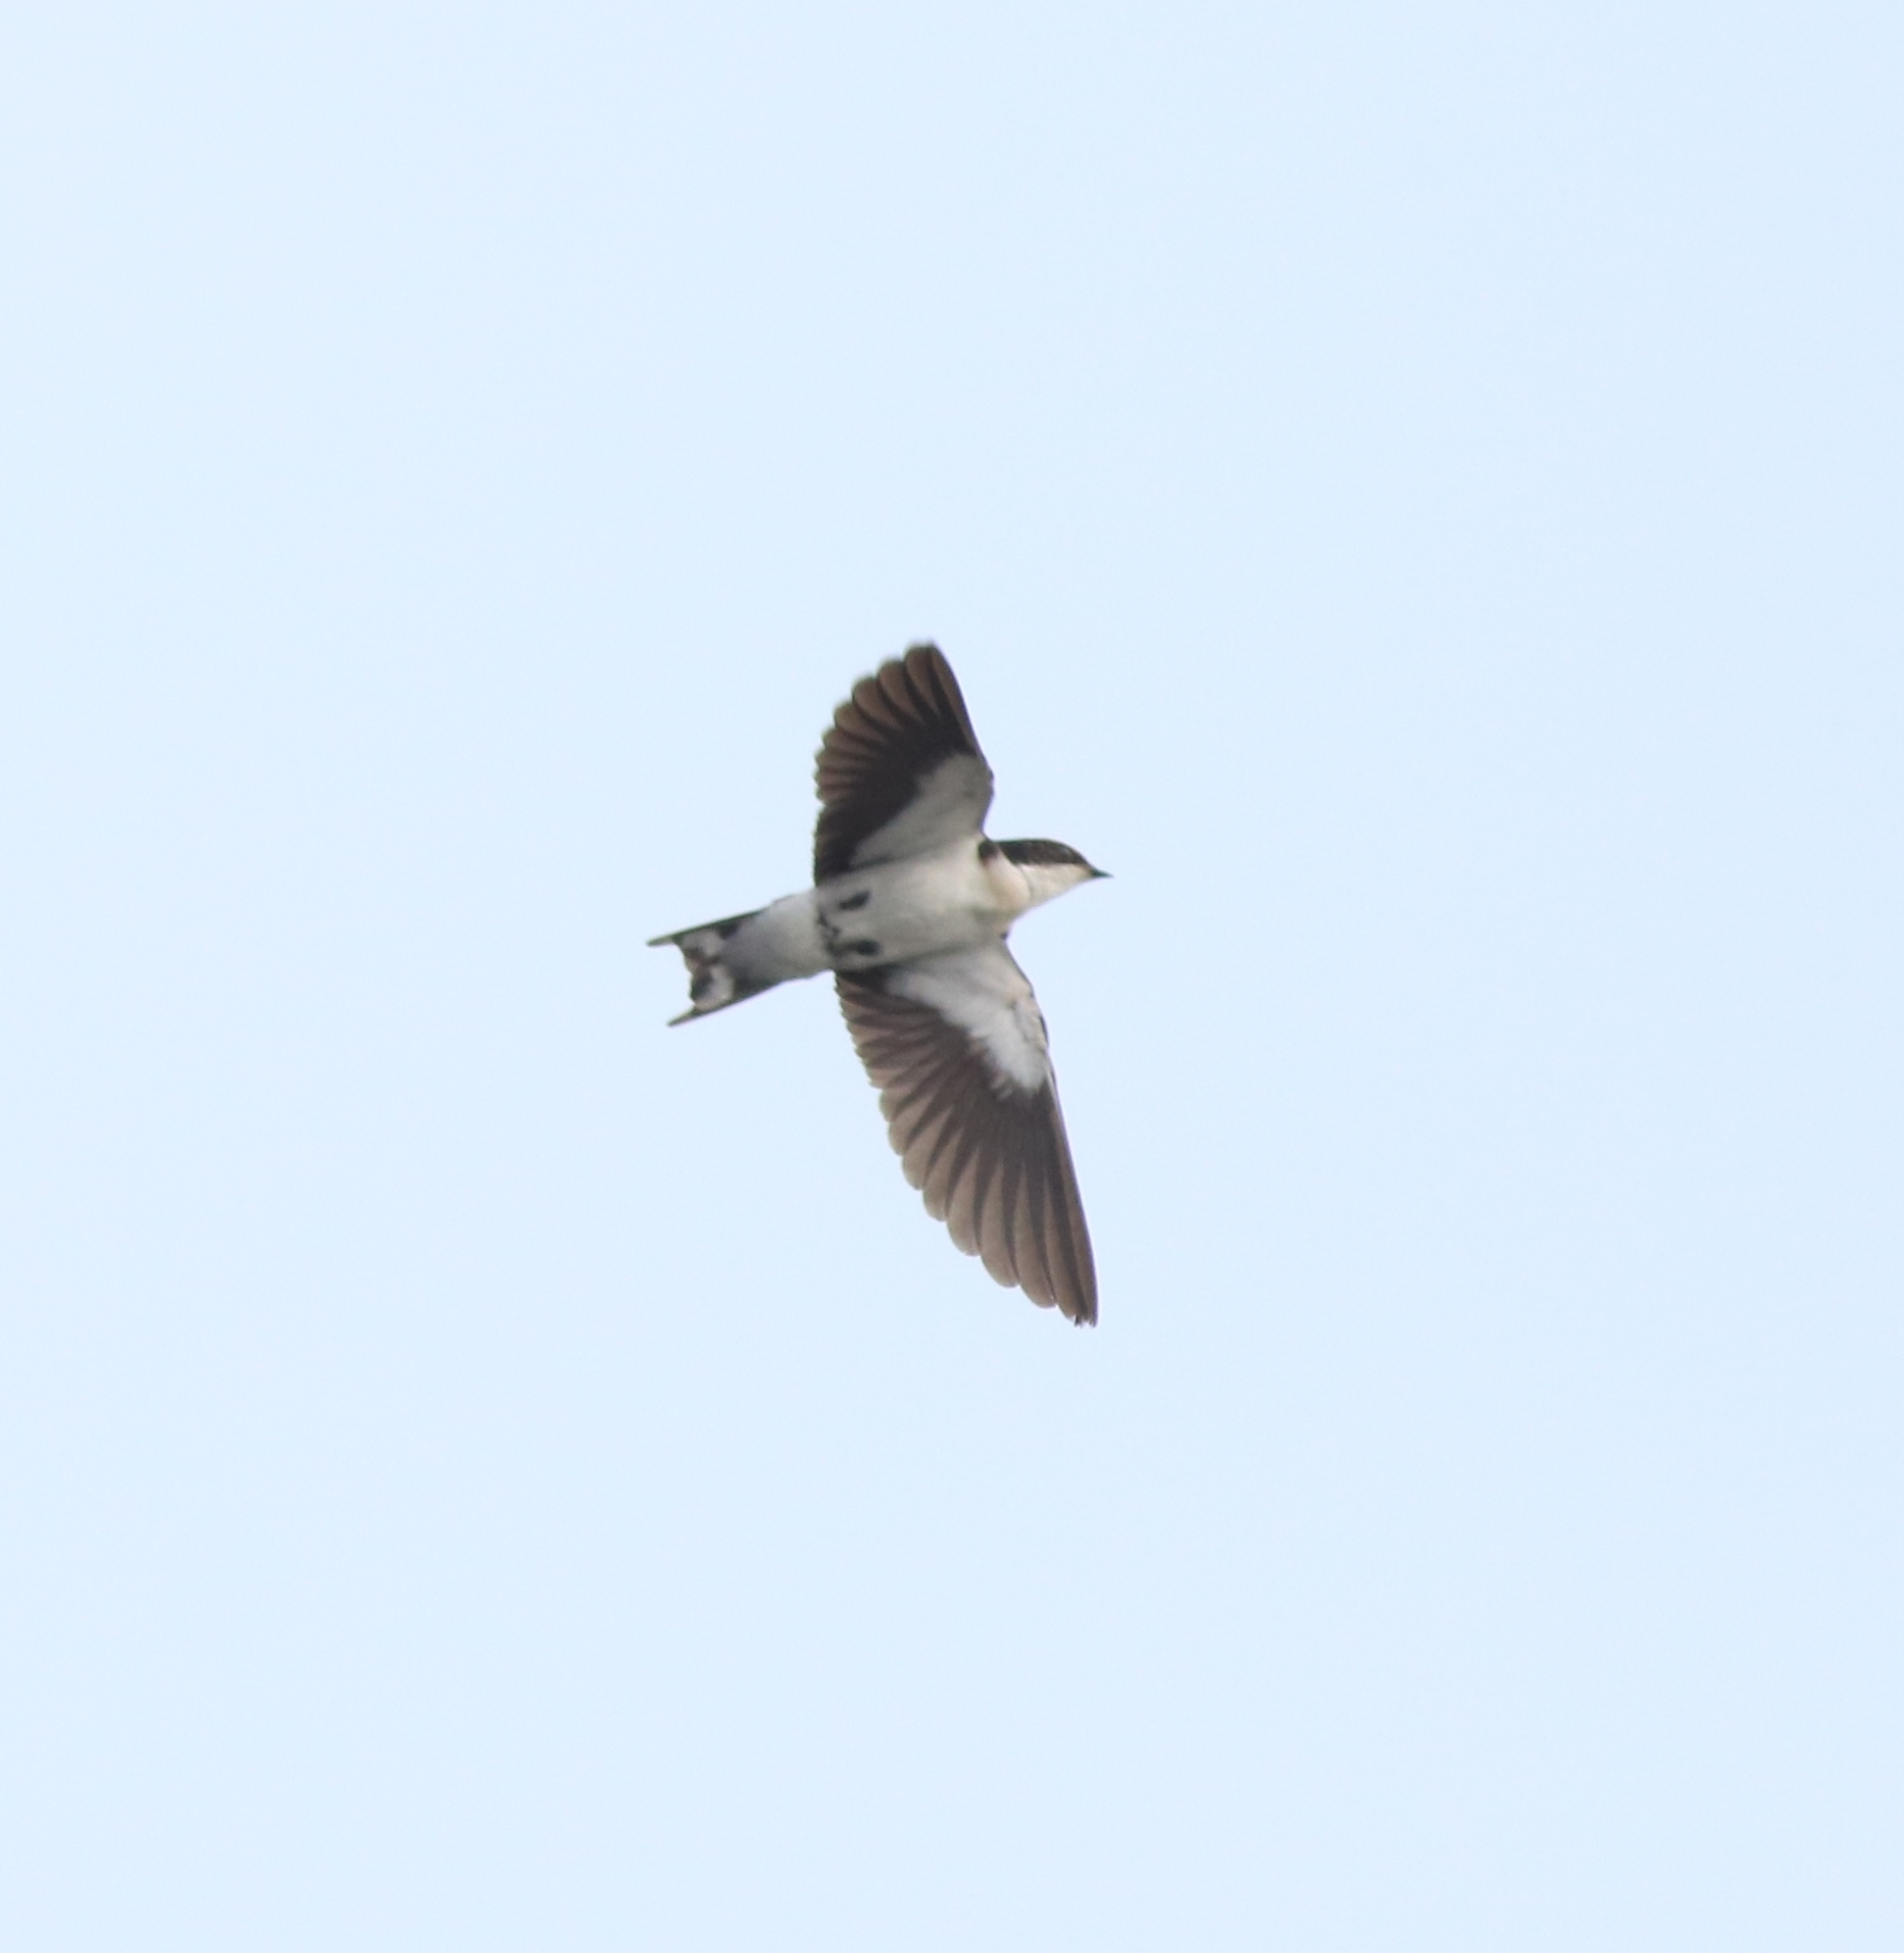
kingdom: Animalia
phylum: Chordata
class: Aves
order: Passeriformes
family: Hirundinidae
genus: Hirundo
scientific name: Hirundo smithii
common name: Wire-tailed swallow
